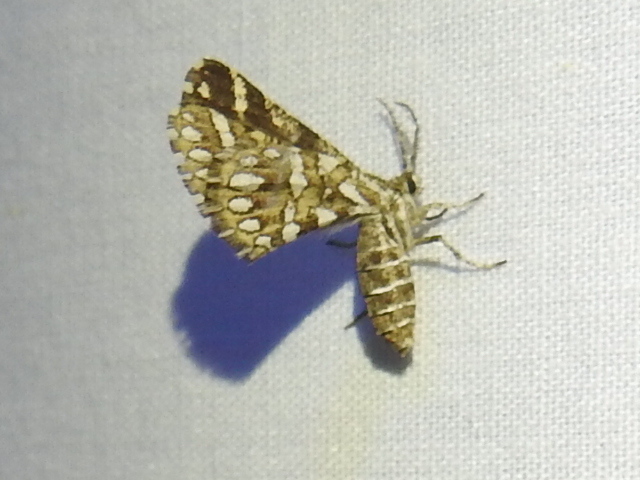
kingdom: Animalia
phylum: Arthropoda
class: Insecta
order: Lepidoptera
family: Geometridae
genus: Narraga
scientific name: Narraga fimetaria
